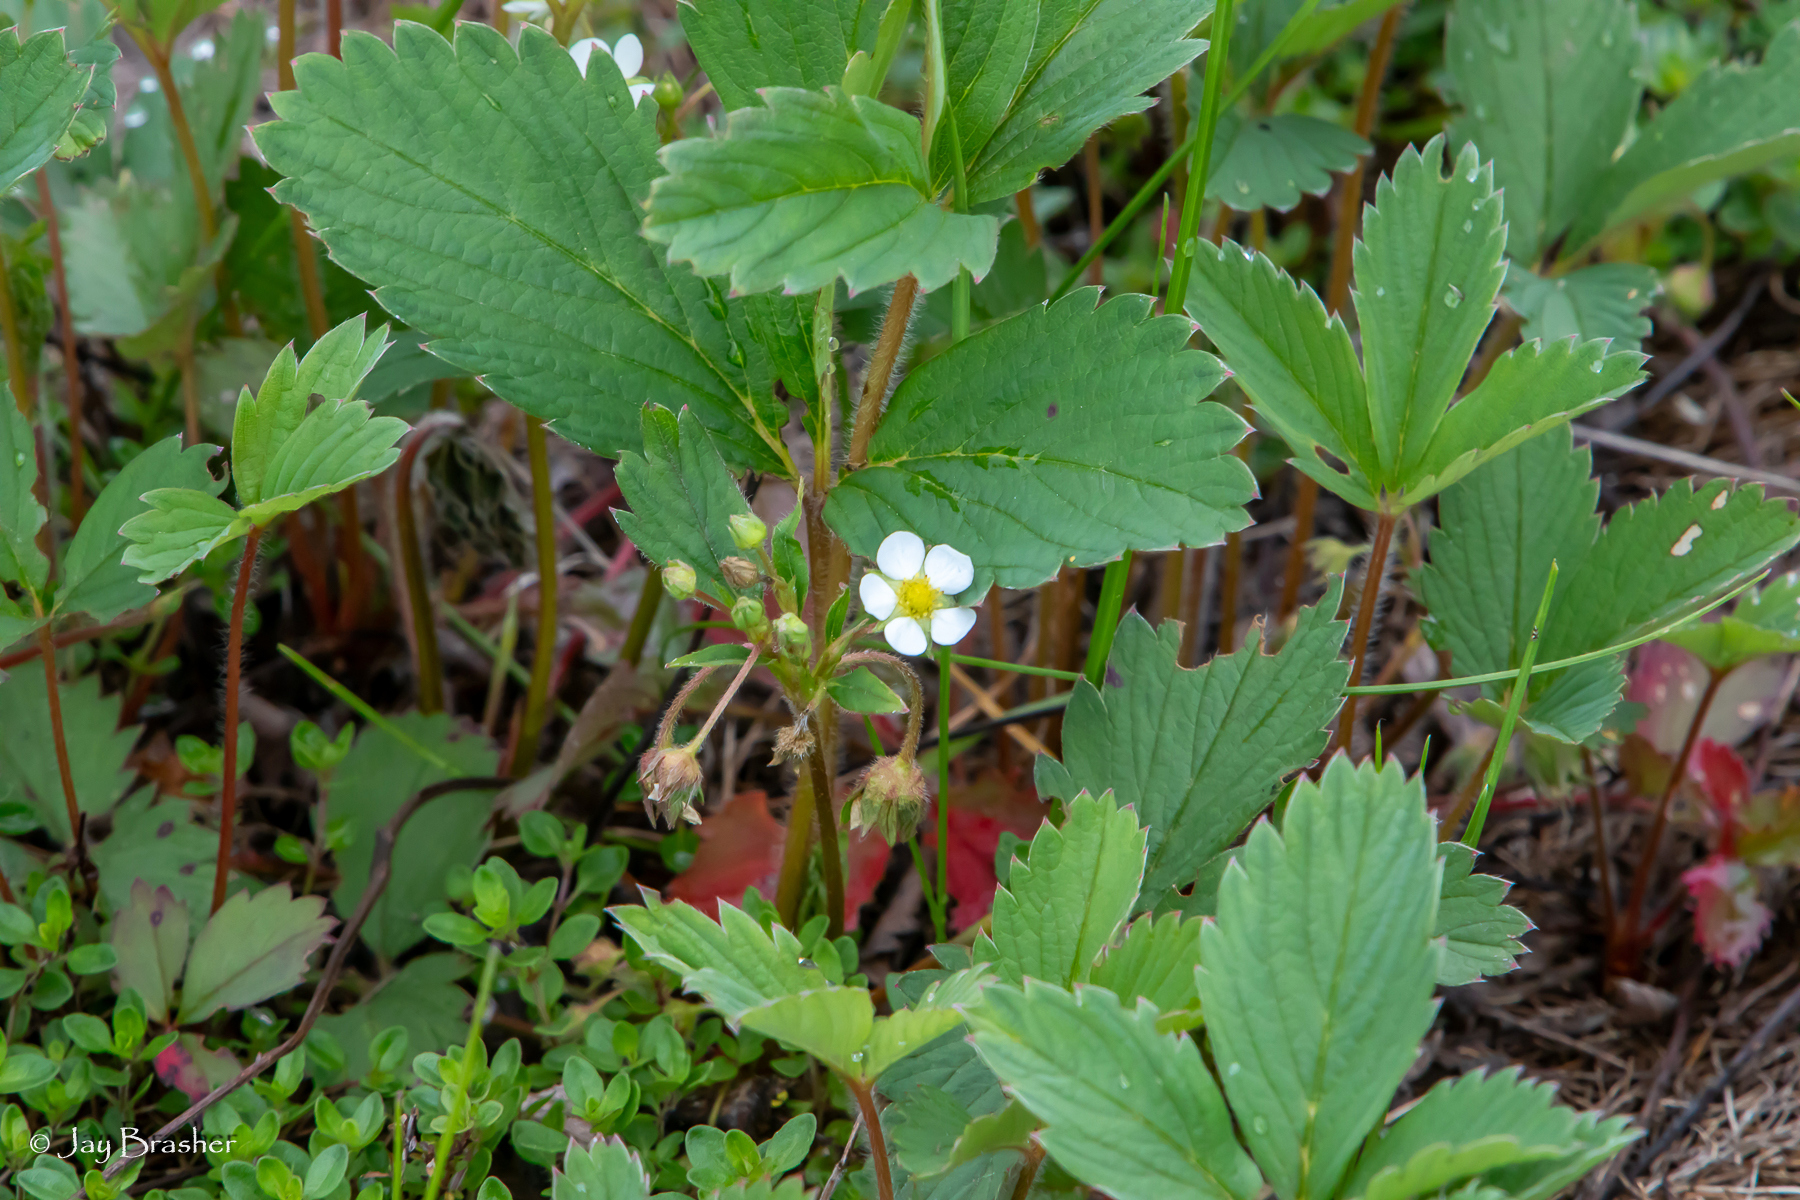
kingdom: Plantae
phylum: Tracheophyta
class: Magnoliopsida
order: Rosales
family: Rosaceae
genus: Fragaria
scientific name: Fragaria virginiana
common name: Thickleaved wild strawberry
